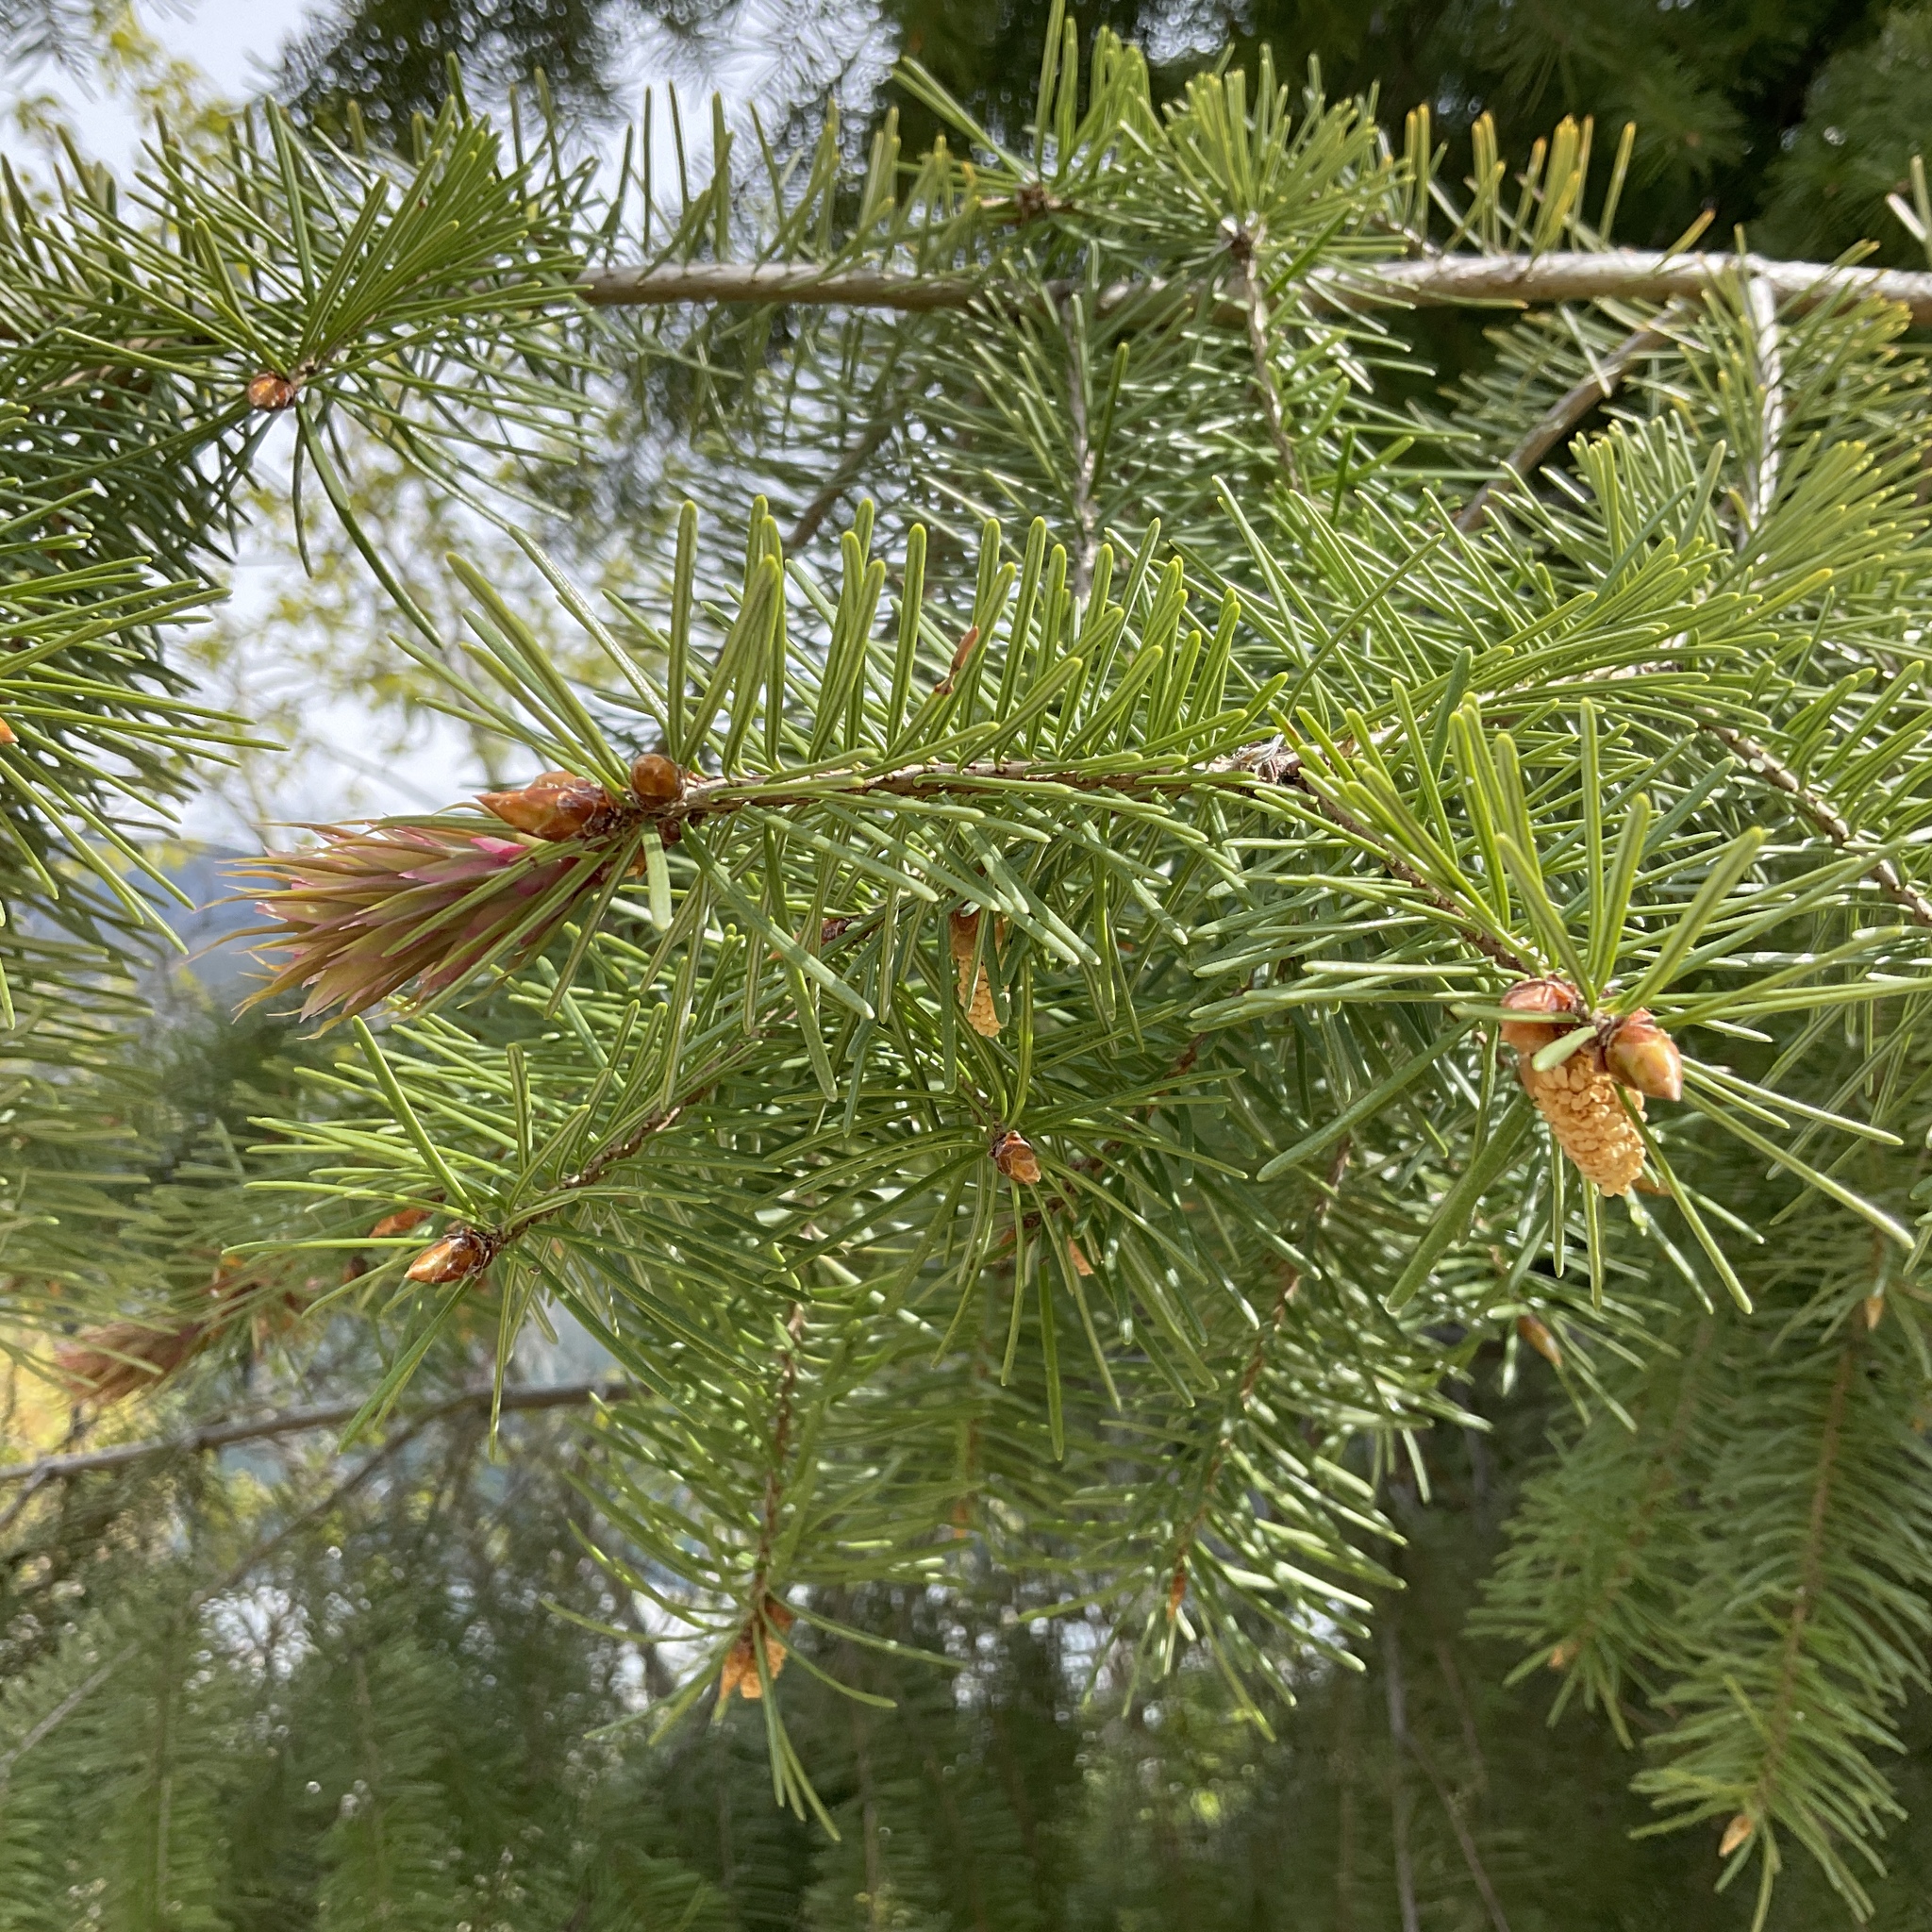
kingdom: Plantae
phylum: Tracheophyta
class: Pinopsida
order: Pinales
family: Pinaceae
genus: Pseudotsuga
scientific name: Pseudotsuga menziesii
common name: Douglas fir
